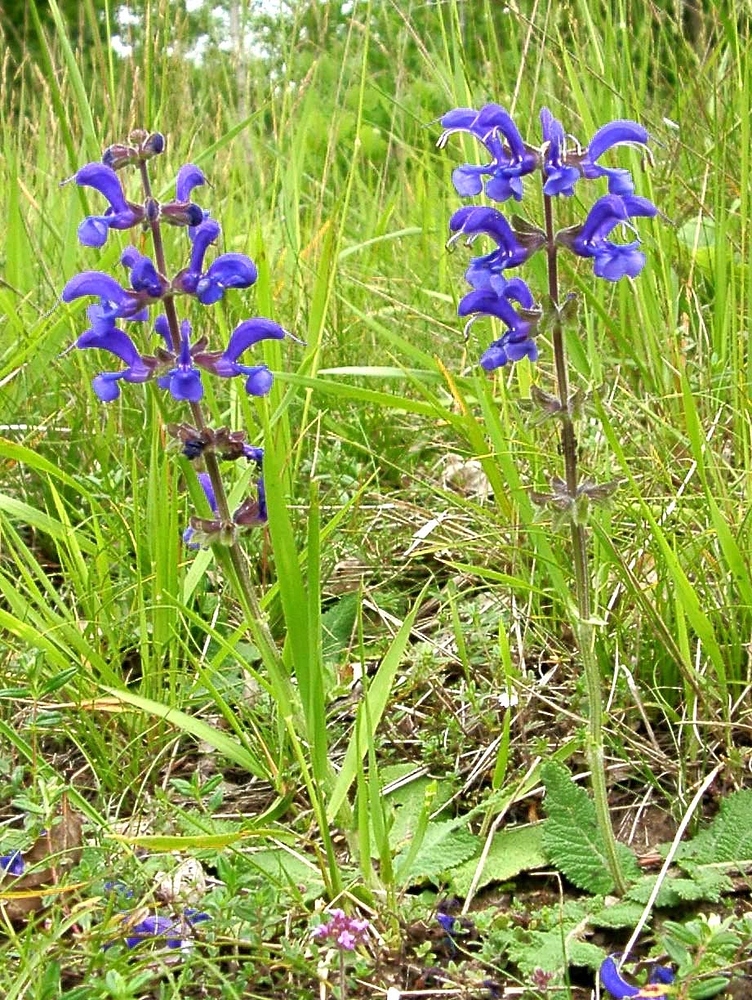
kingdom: Plantae
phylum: Tracheophyta
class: Magnoliopsida
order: Lamiales
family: Lamiaceae
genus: Salvia
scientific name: Salvia pratensis
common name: Meadow sage
